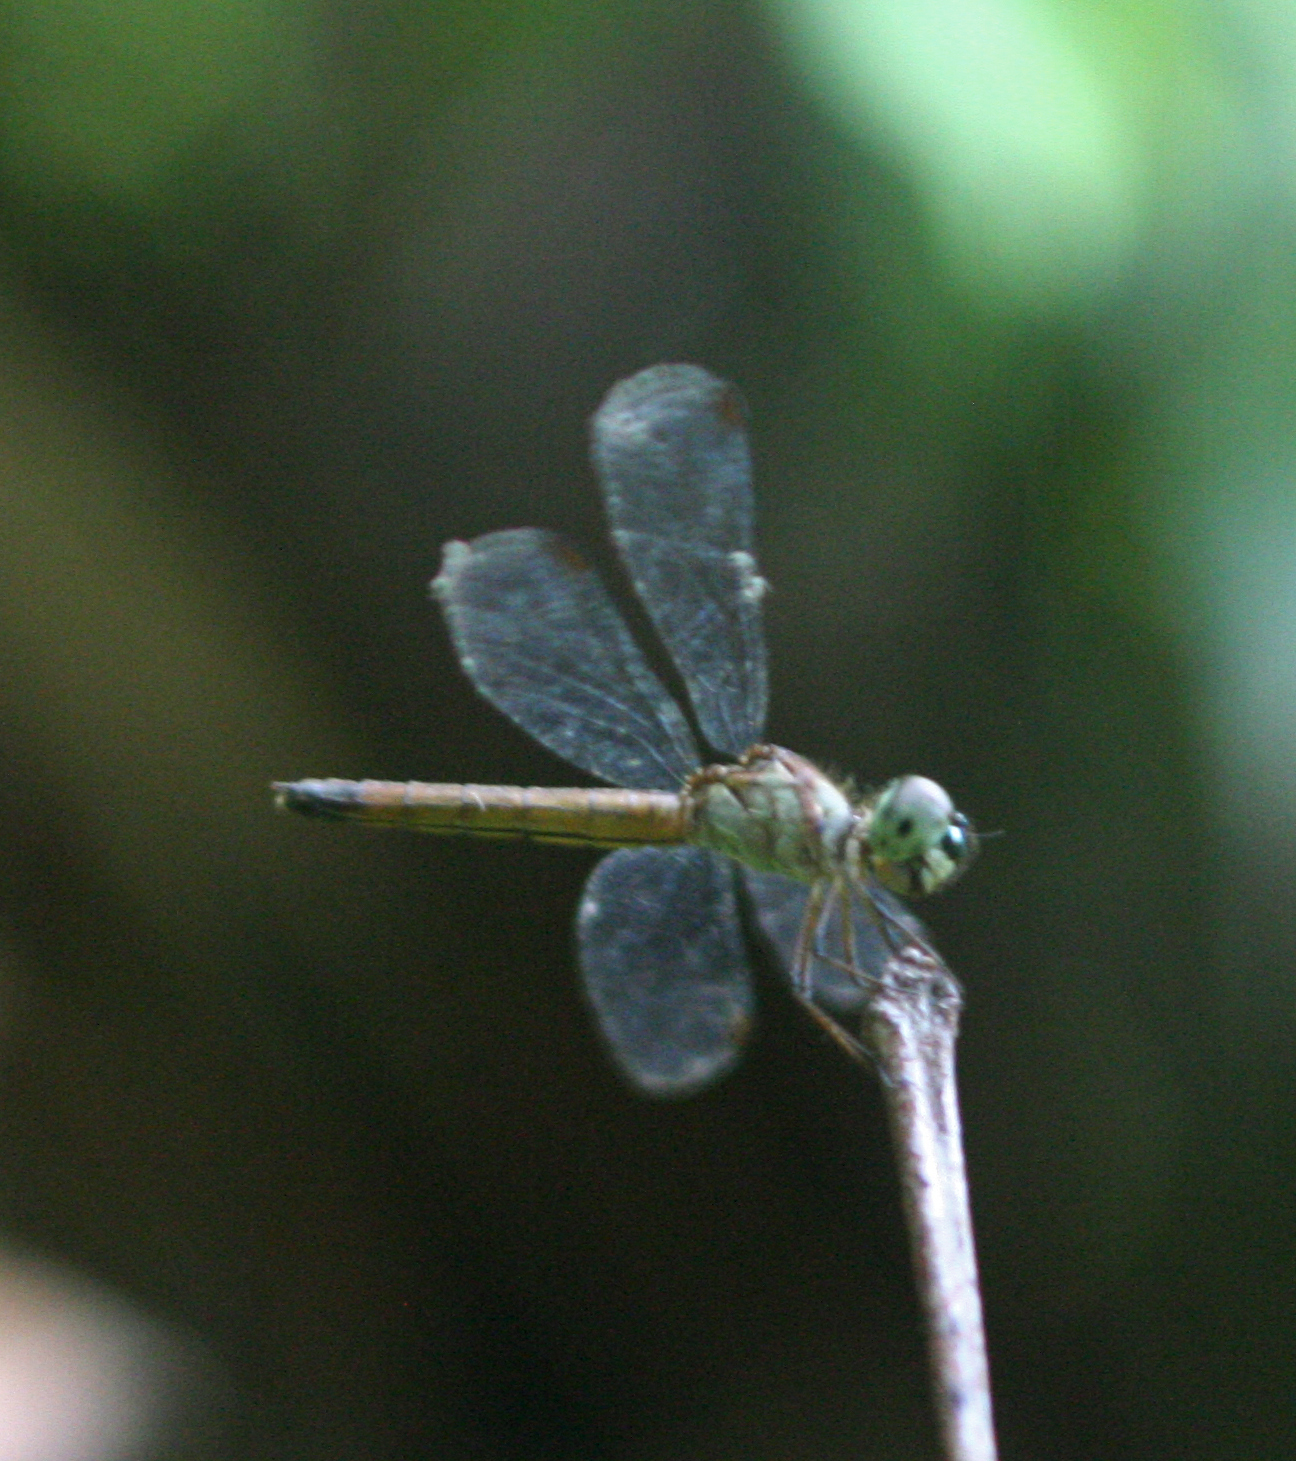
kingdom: Animalia
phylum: Arthropoda
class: Insecta
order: Odonata
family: Libellulidae
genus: Brachygonia
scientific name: Brachygonia oculata
